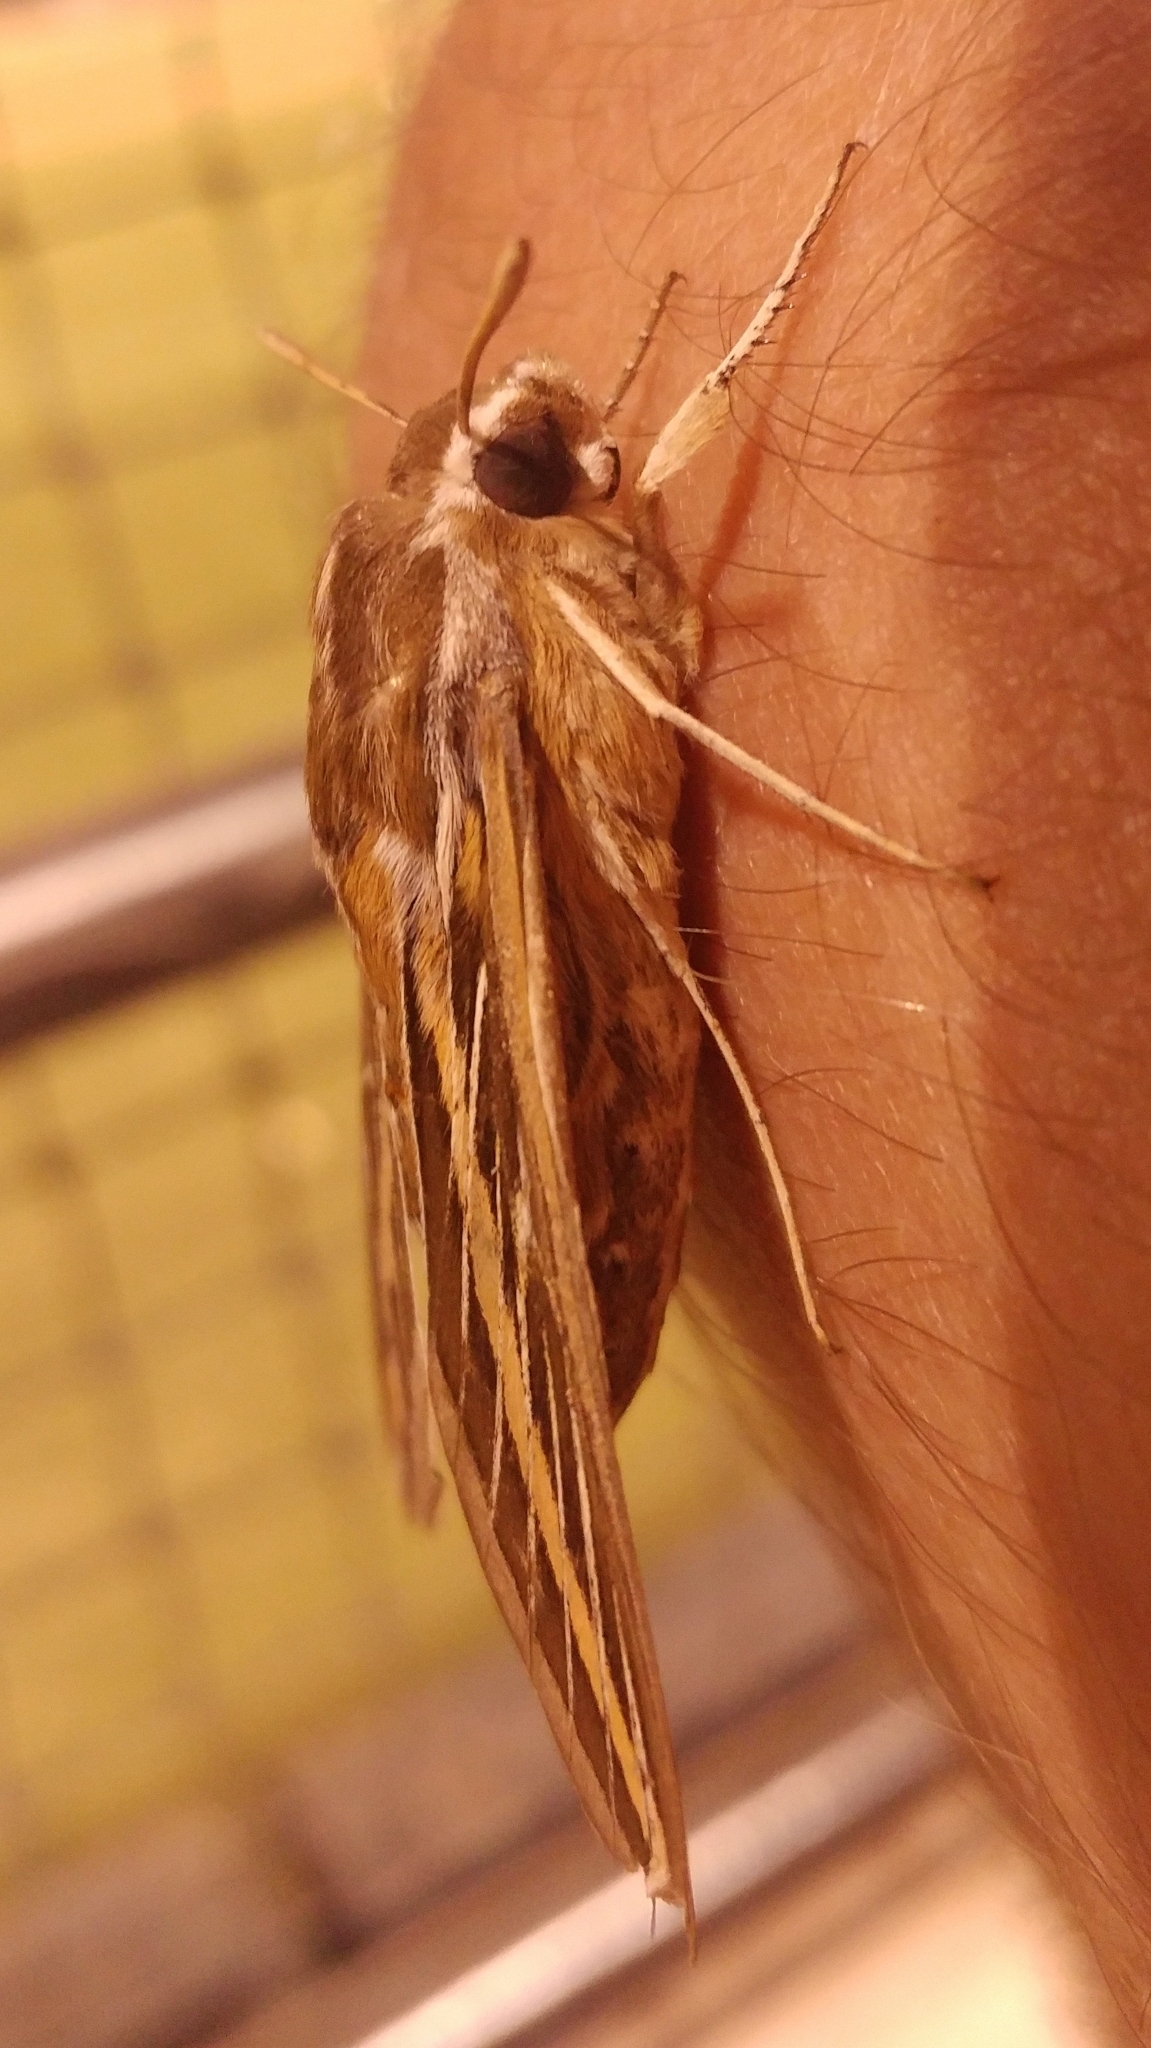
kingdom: Animalia
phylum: Arthropoda
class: Insecta
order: Lepidoptera
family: Sphingidae
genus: Hyles
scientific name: Hyles lineata
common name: White-lined sphinx
